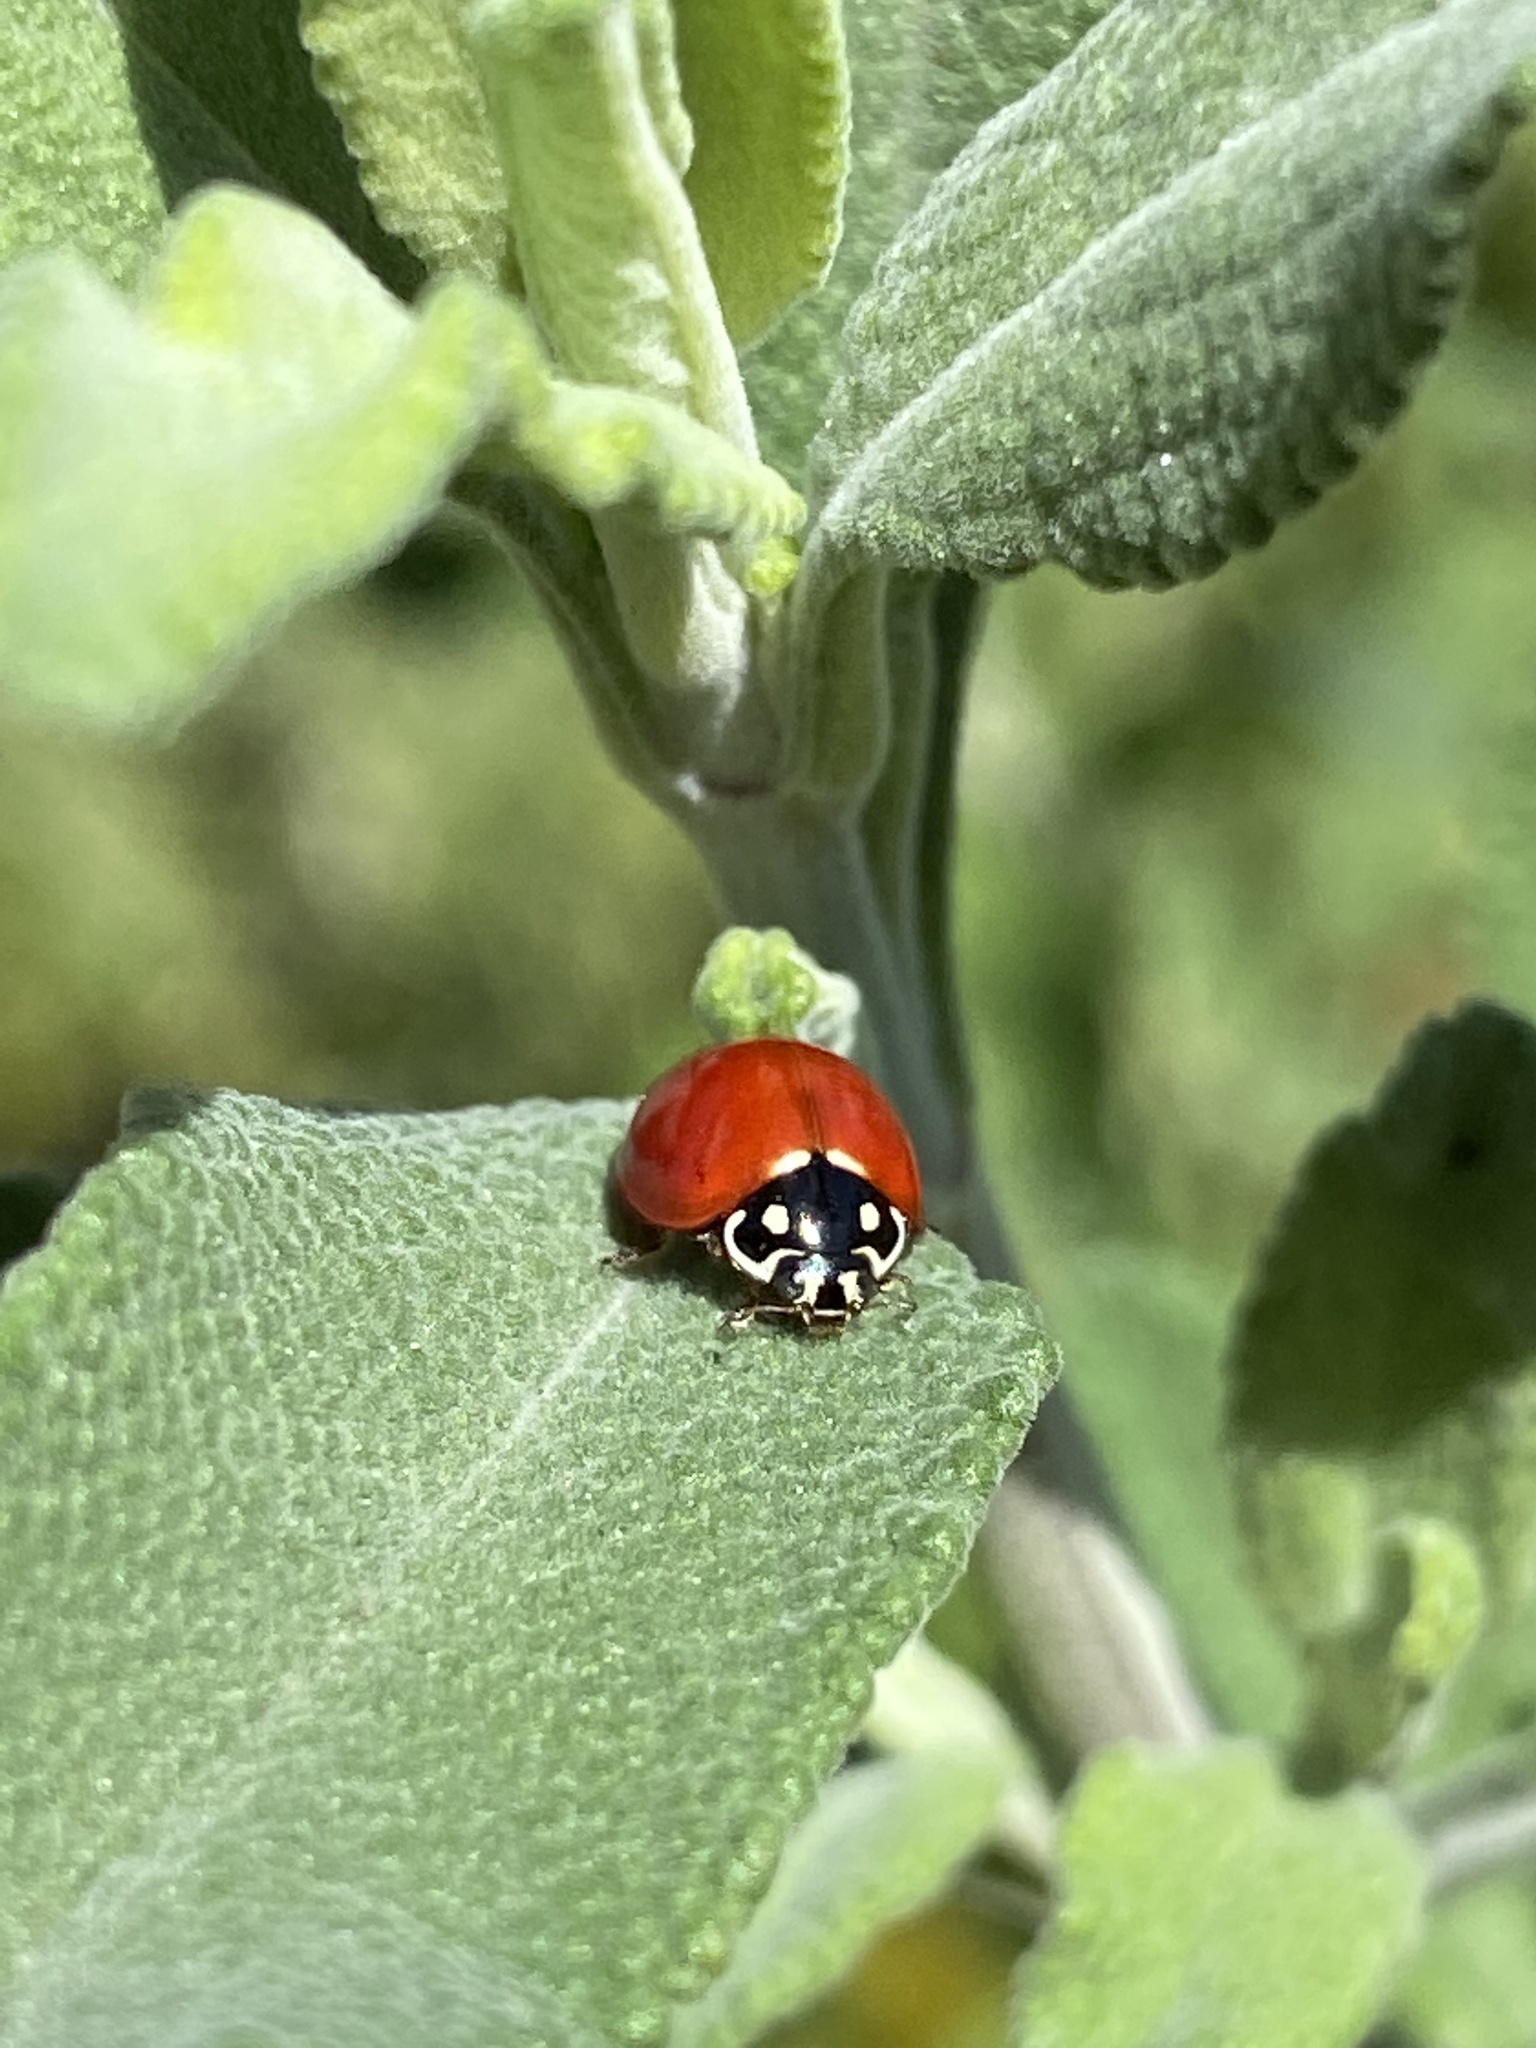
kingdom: Animalia
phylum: Arthropoda
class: Insecta
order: Coleoptera
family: Coccinellidae
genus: Cycloneda
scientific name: Cycloneda sanguinea
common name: Ladybird beetle
